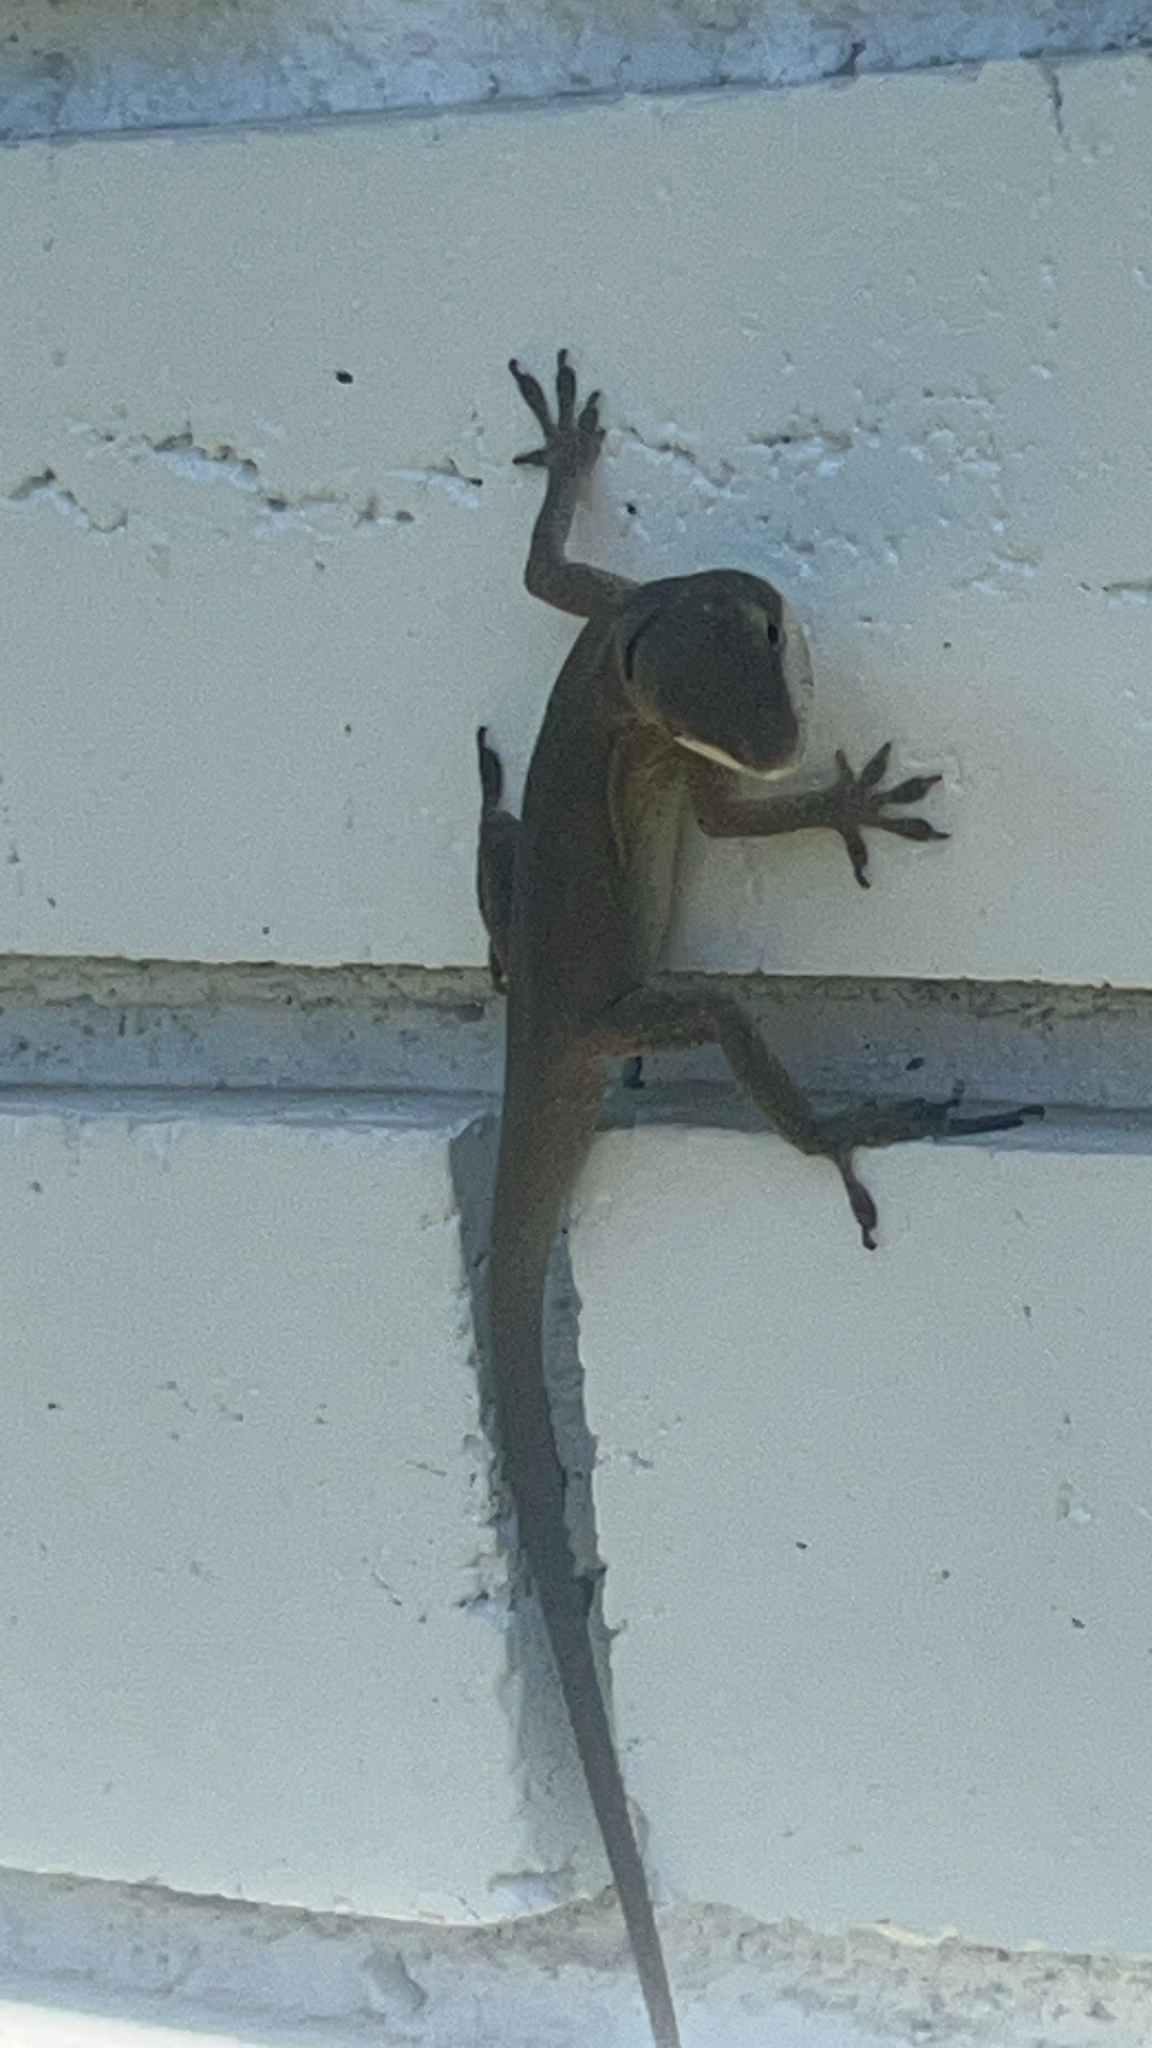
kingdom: Animalia
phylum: Chordata
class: Squamata
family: Dactyloidae
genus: Anolis
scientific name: Anolis carolinensis
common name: Green anole
